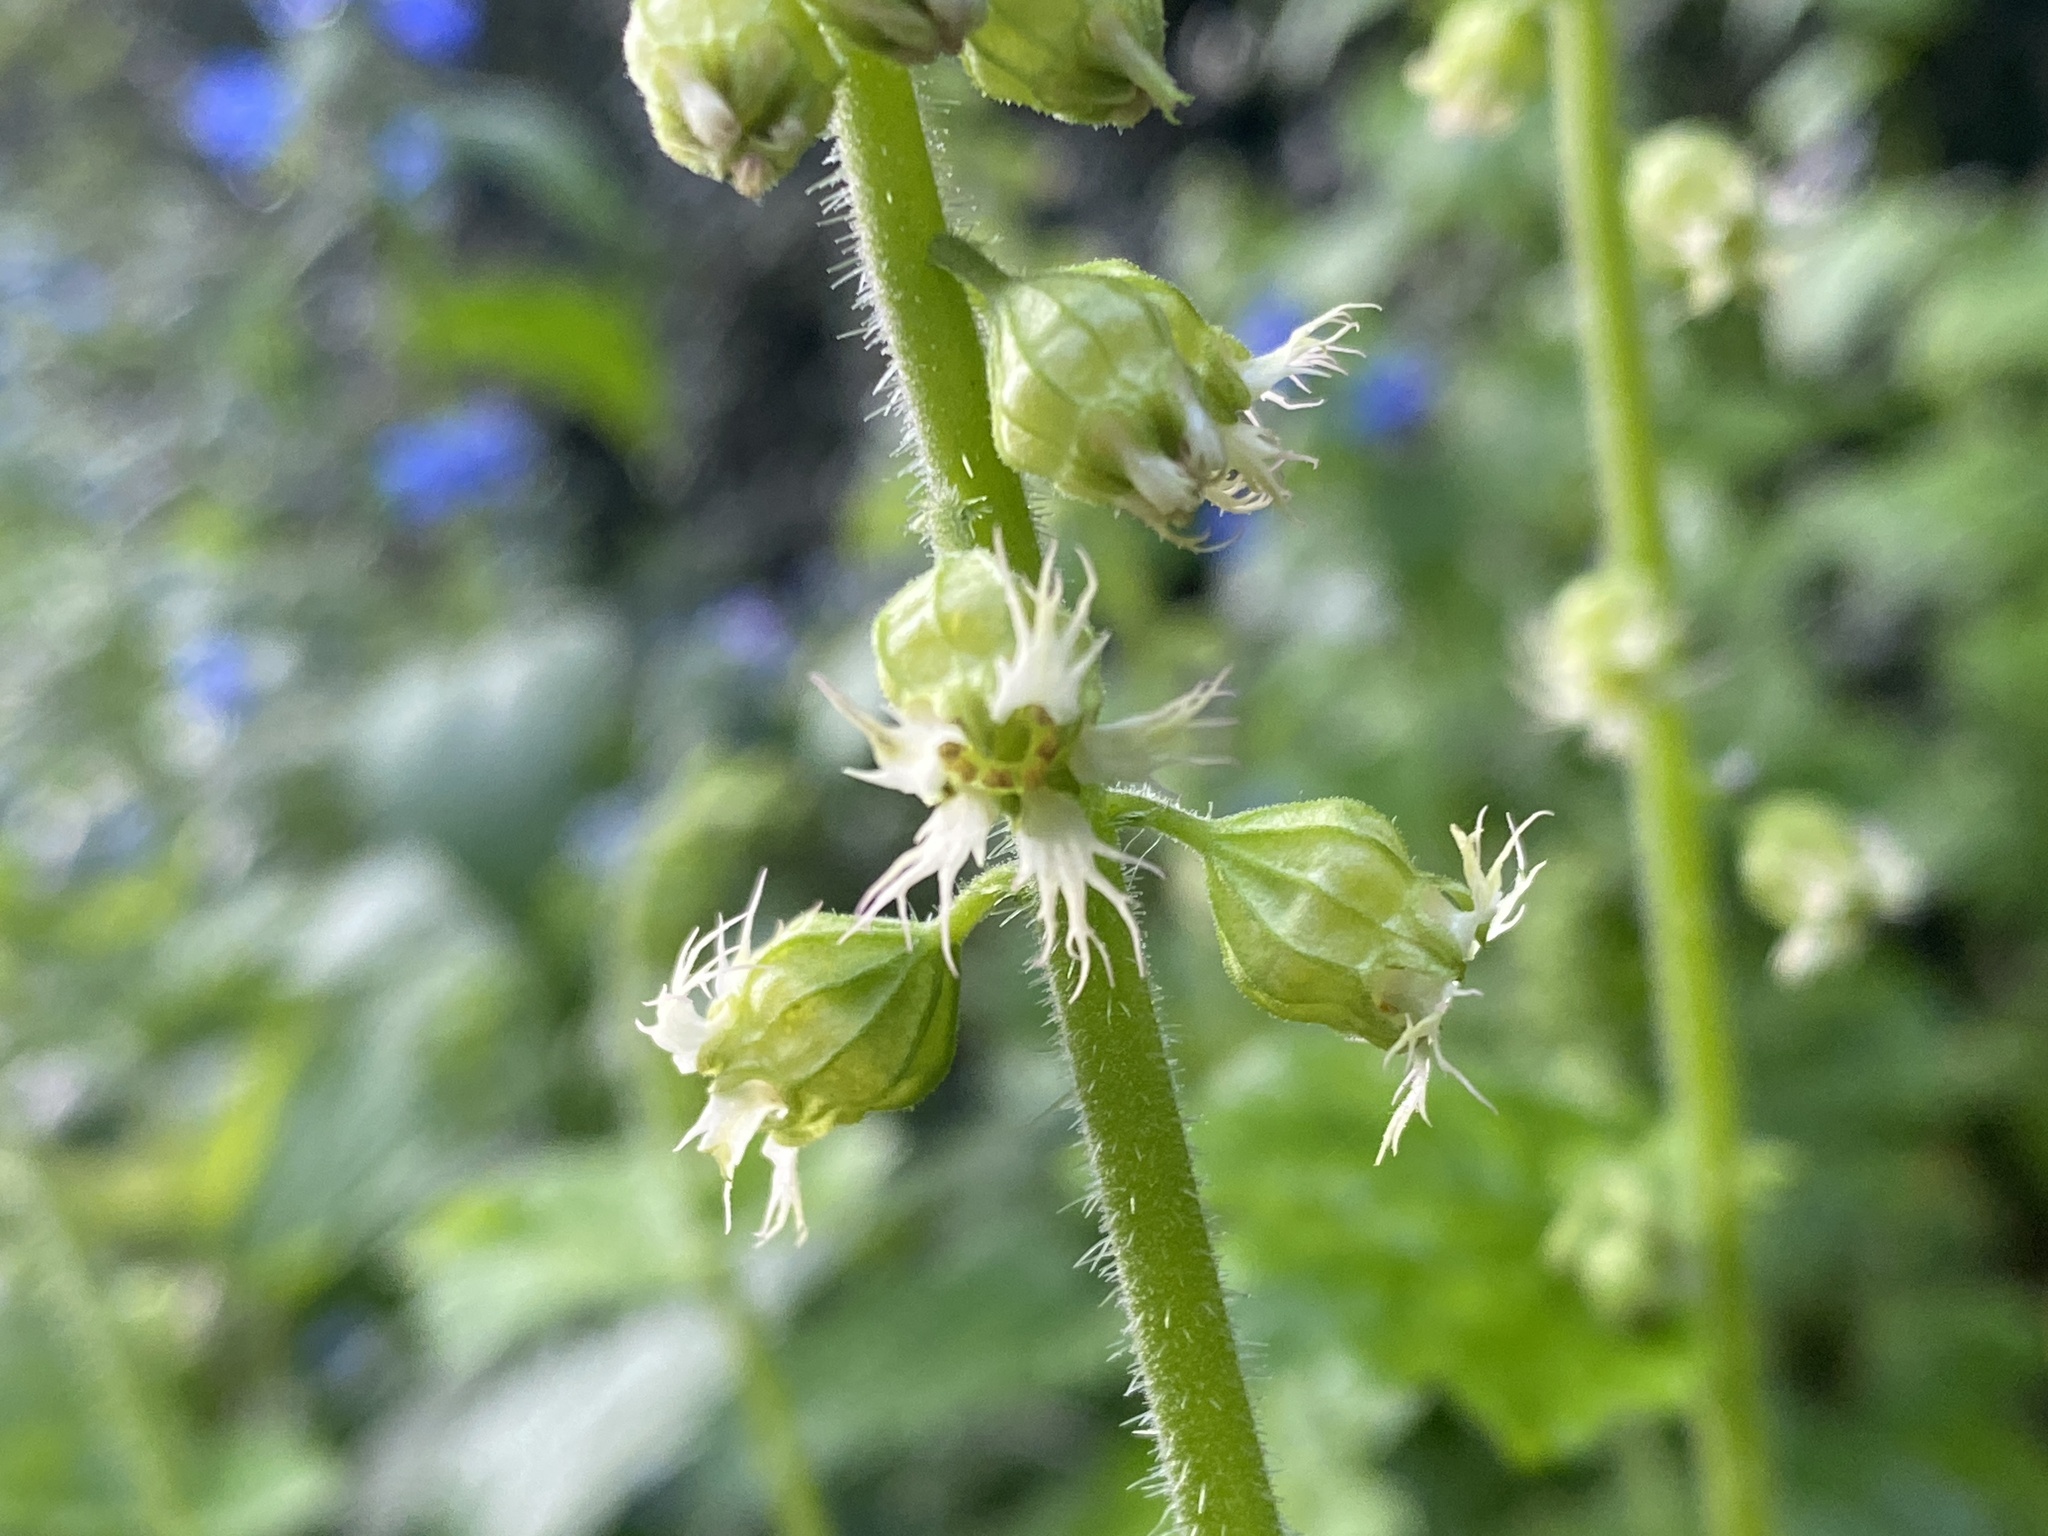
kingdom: Plantae
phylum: Tracheophyta
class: Magnoliopsida
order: Saxifragales
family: Saxifragaceae
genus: Tellima
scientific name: Tellima grandiflora
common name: Fringecups
